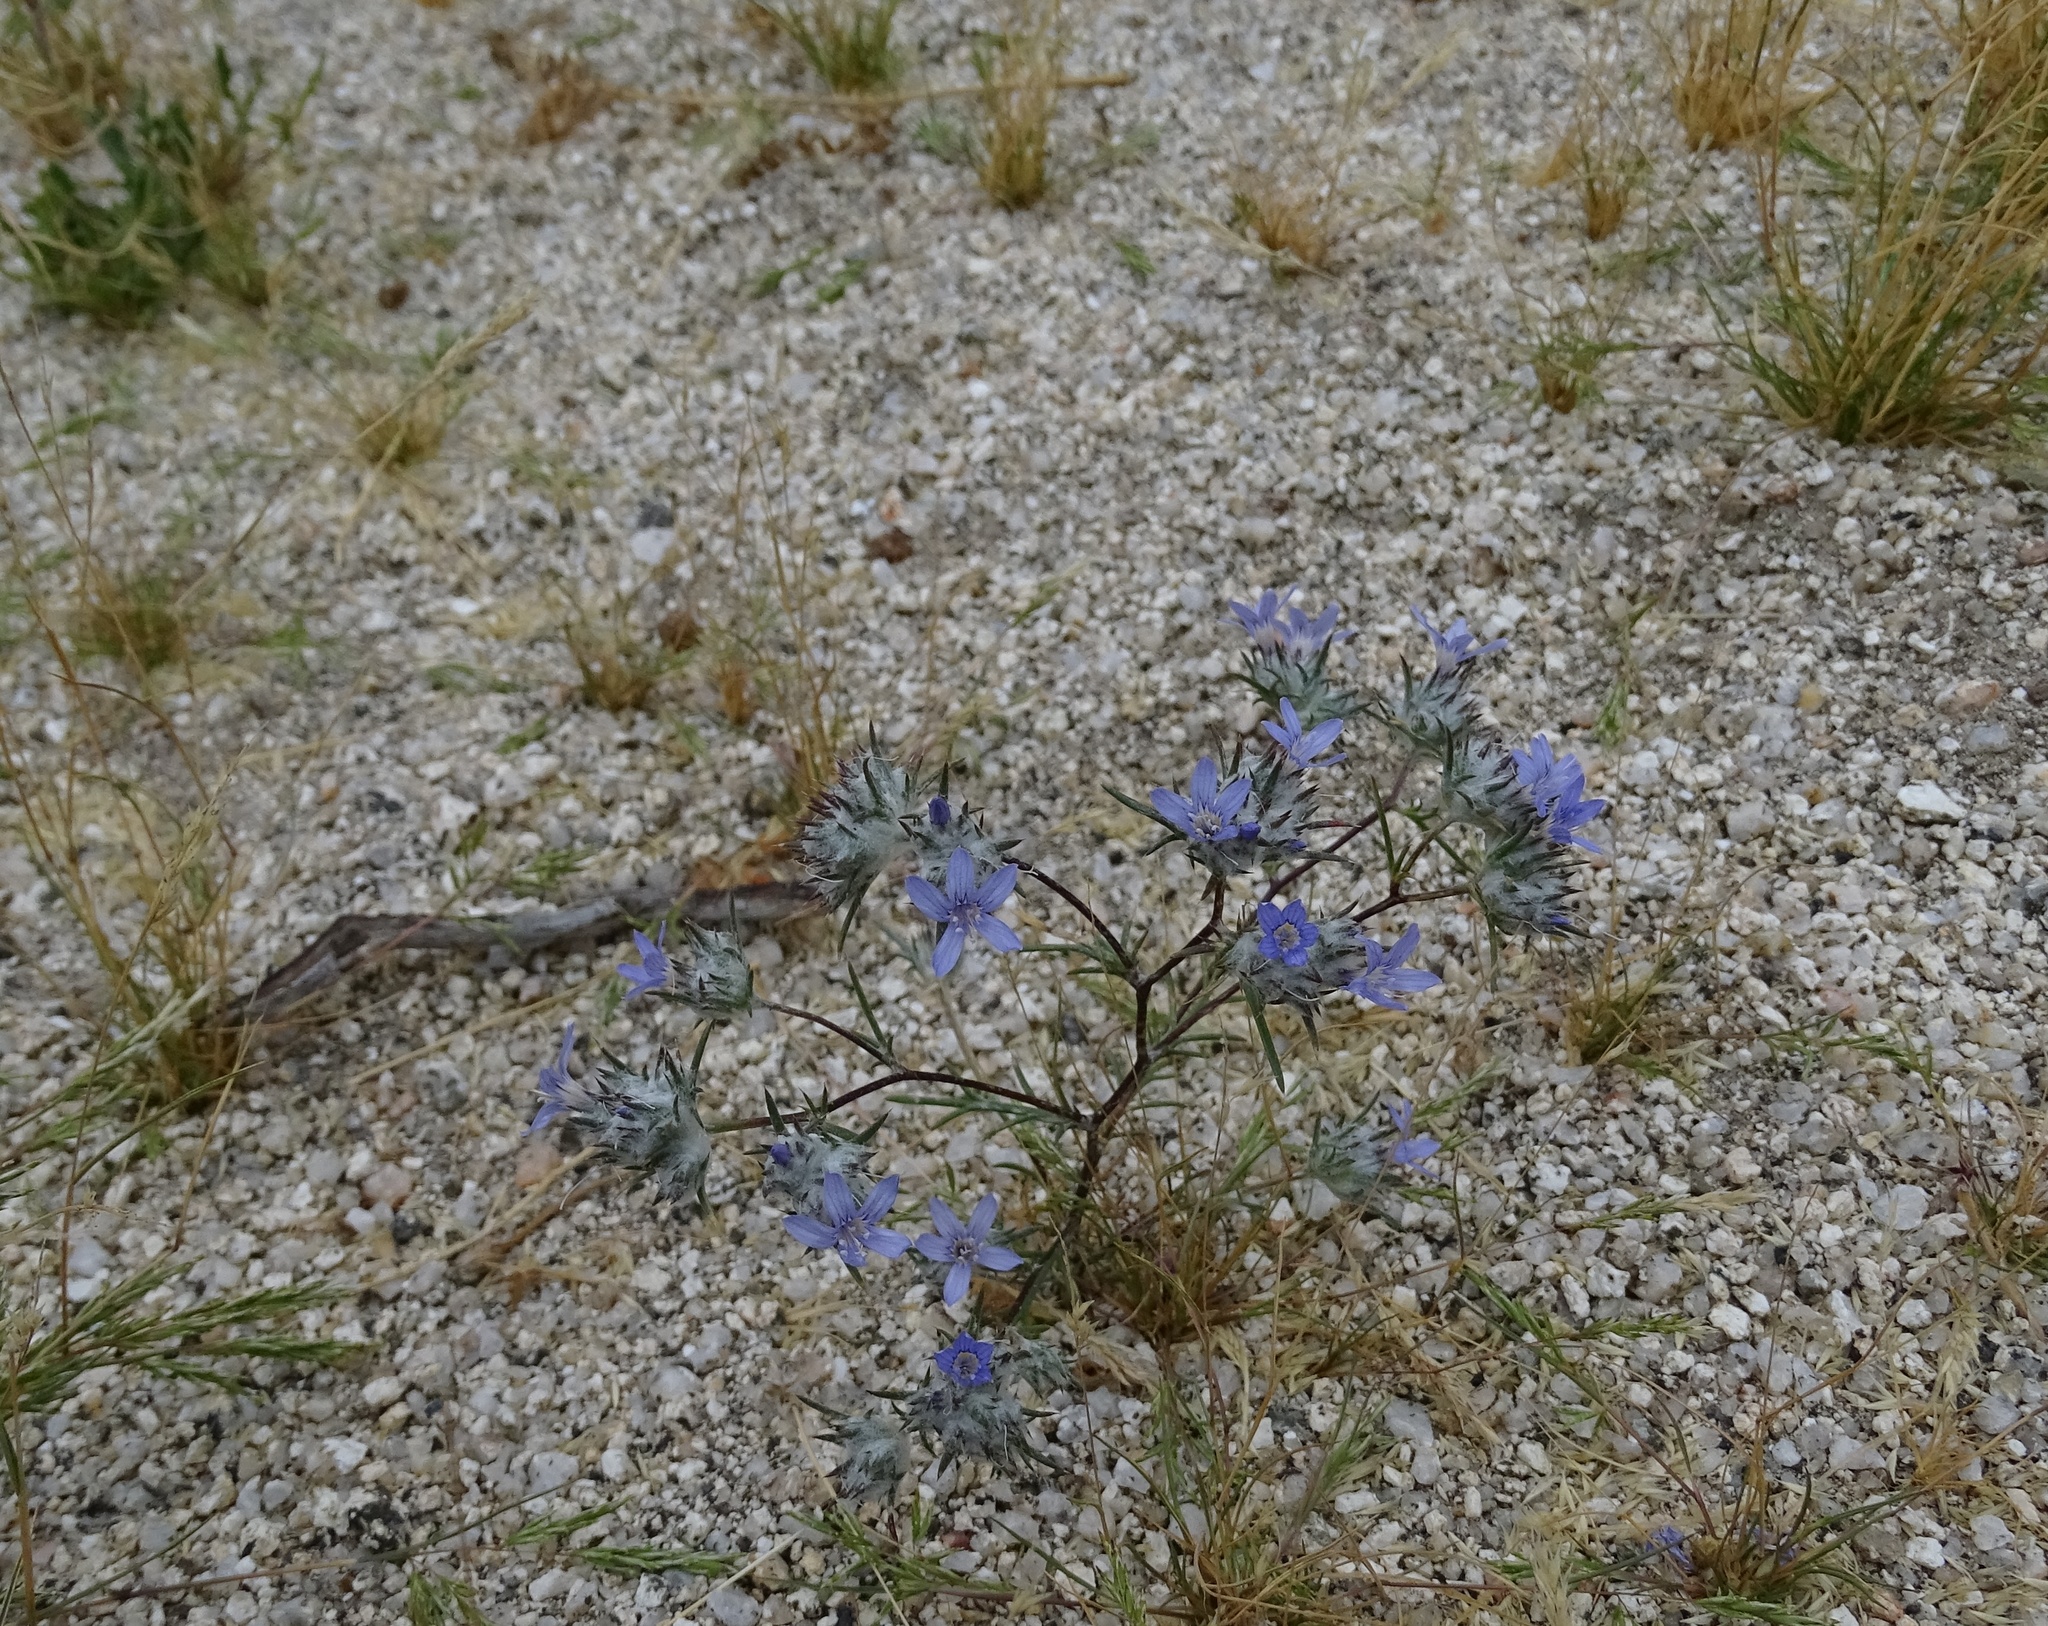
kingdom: Plantae
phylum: Tracheophyta
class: Magnoliopsida
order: Ericales
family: Polemoniaceae
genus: Eriastrum
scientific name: Eriastrum eremicum
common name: Desert eriastrum
